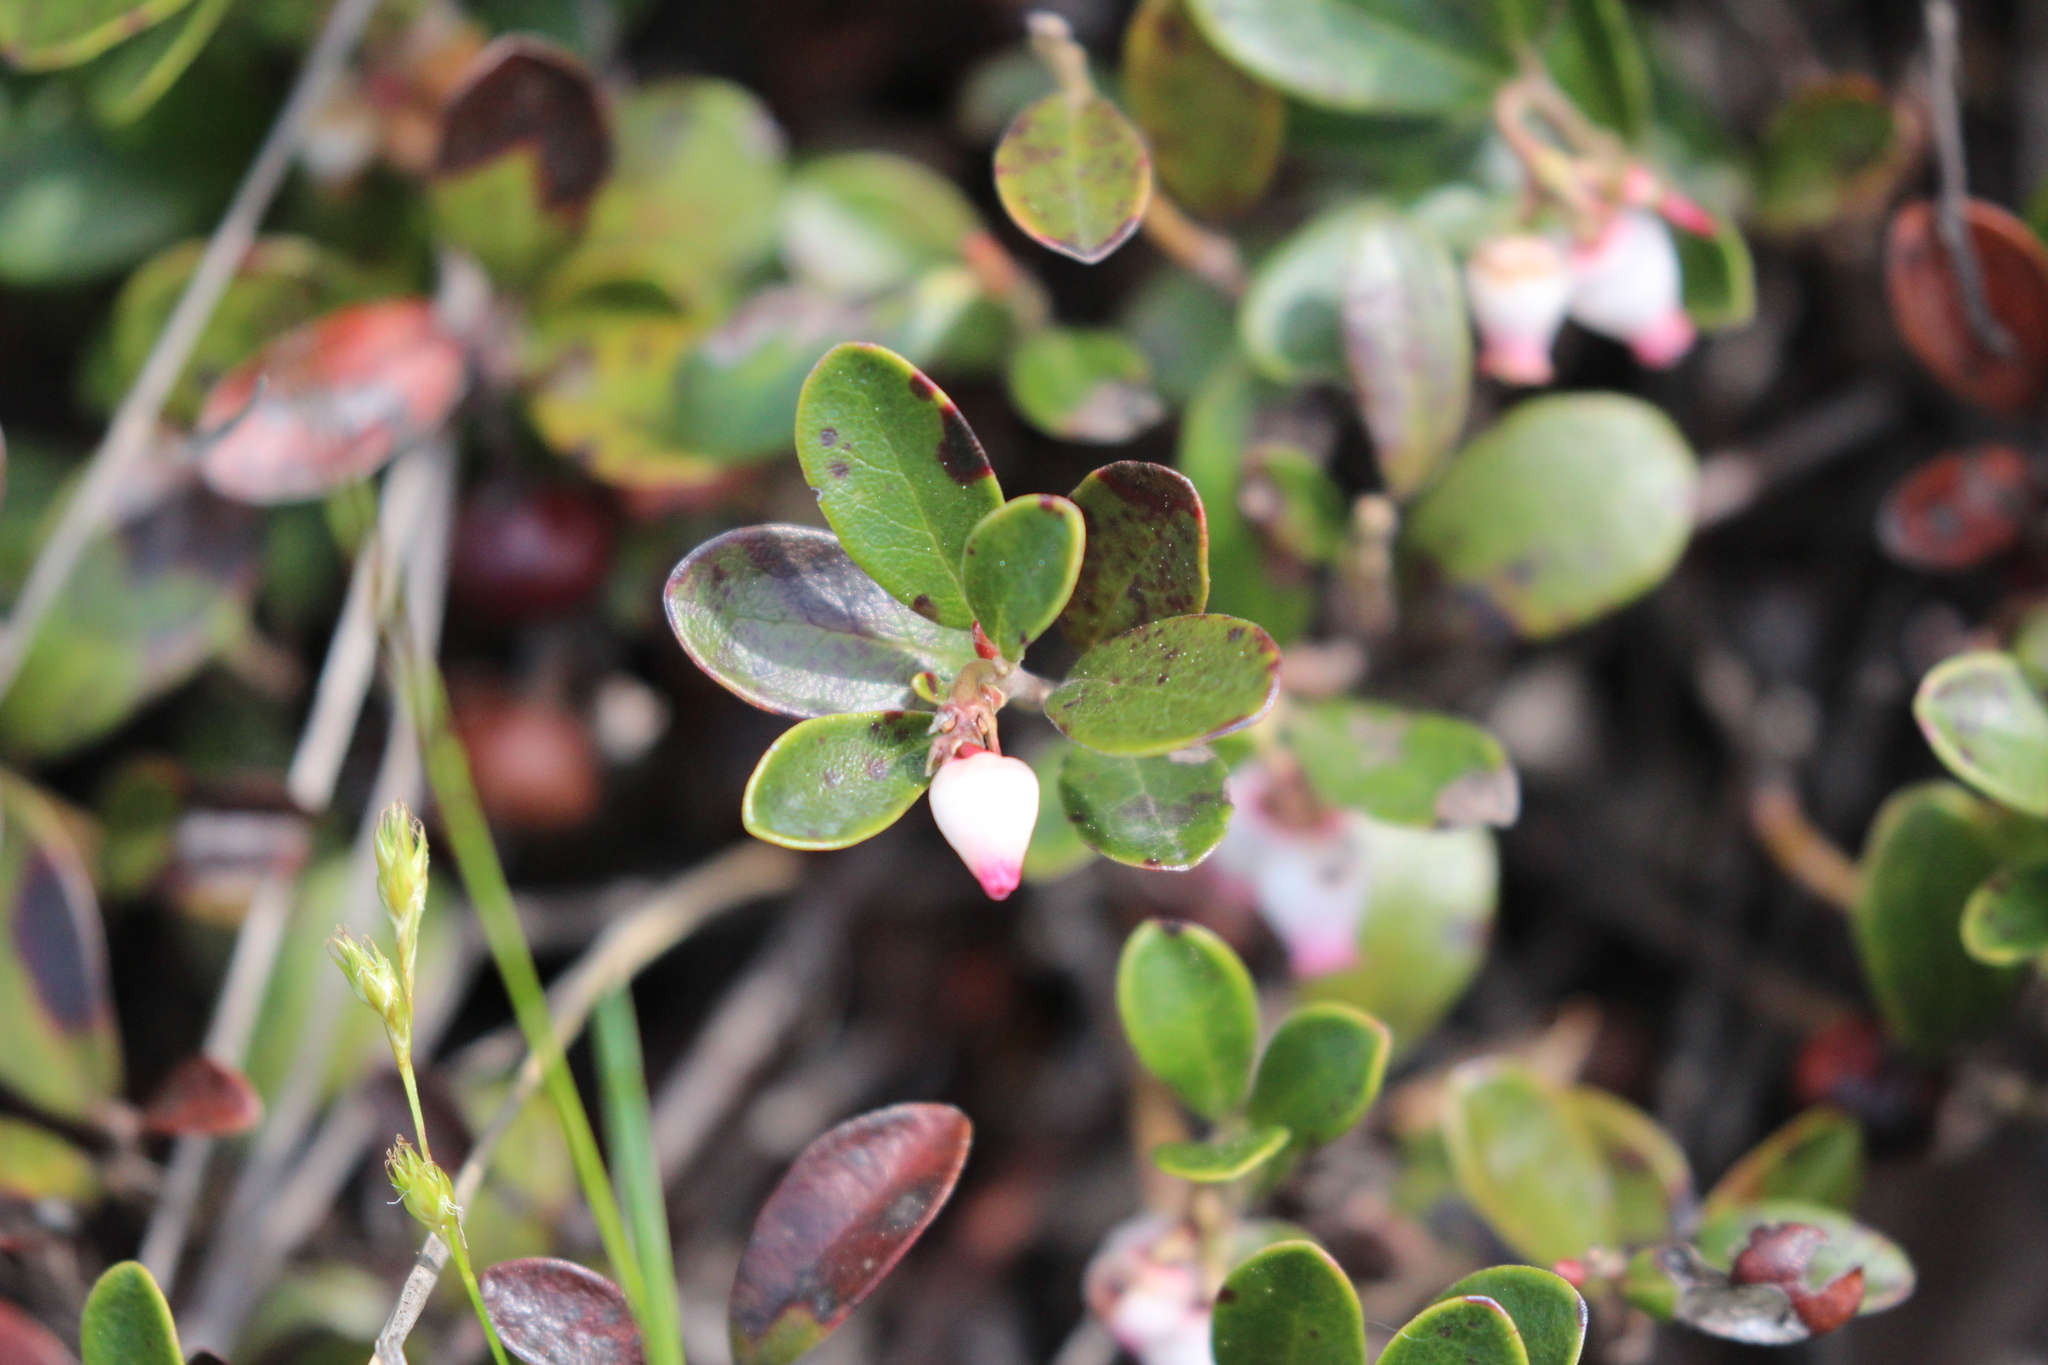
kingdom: Plantae
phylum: Tracheophyta
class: Magnoliopsida
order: Ericales
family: Ericaceae
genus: Arctostaphylos
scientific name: Arctostaphylos uva-ursi
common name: Bearberry
